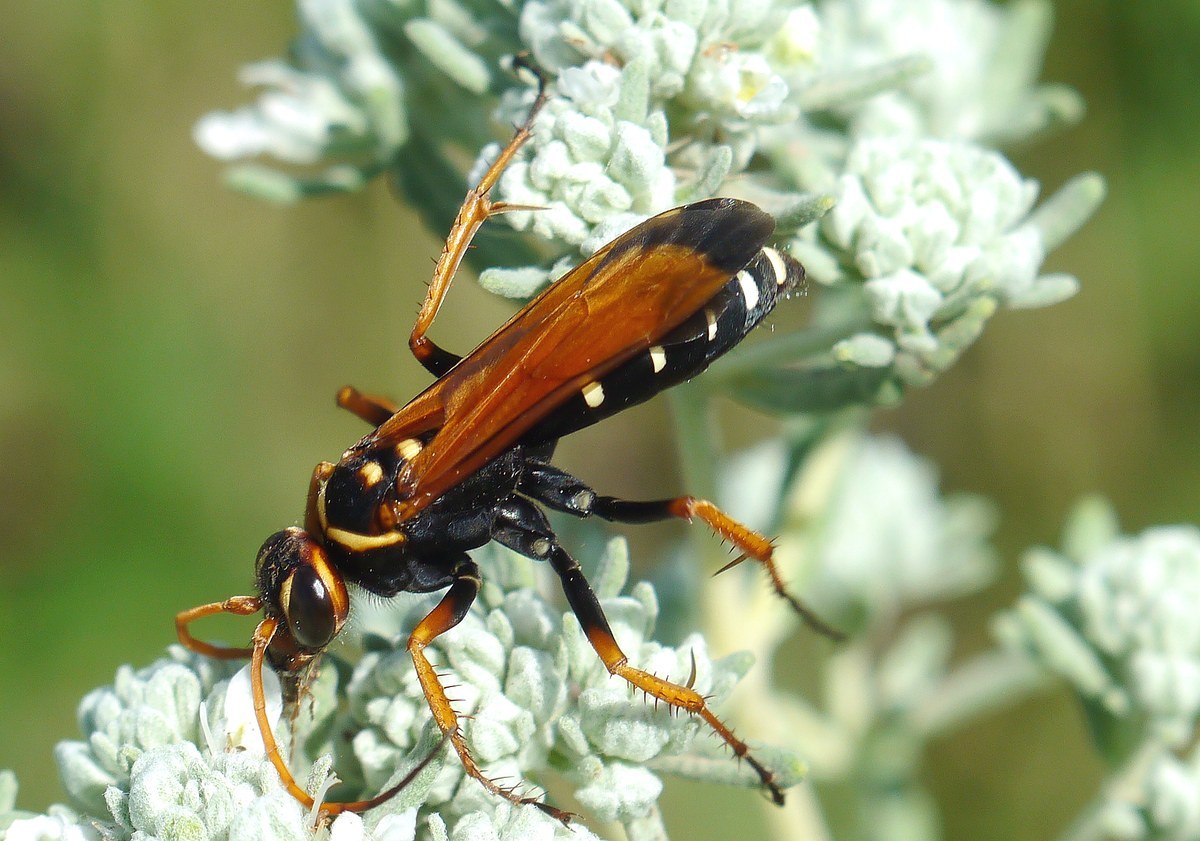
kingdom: Animalia
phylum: Arthropoda
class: Insecta
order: Hymenoptera
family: Pompilidae
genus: Parabatozonus
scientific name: Parabatozonus lacerticida
